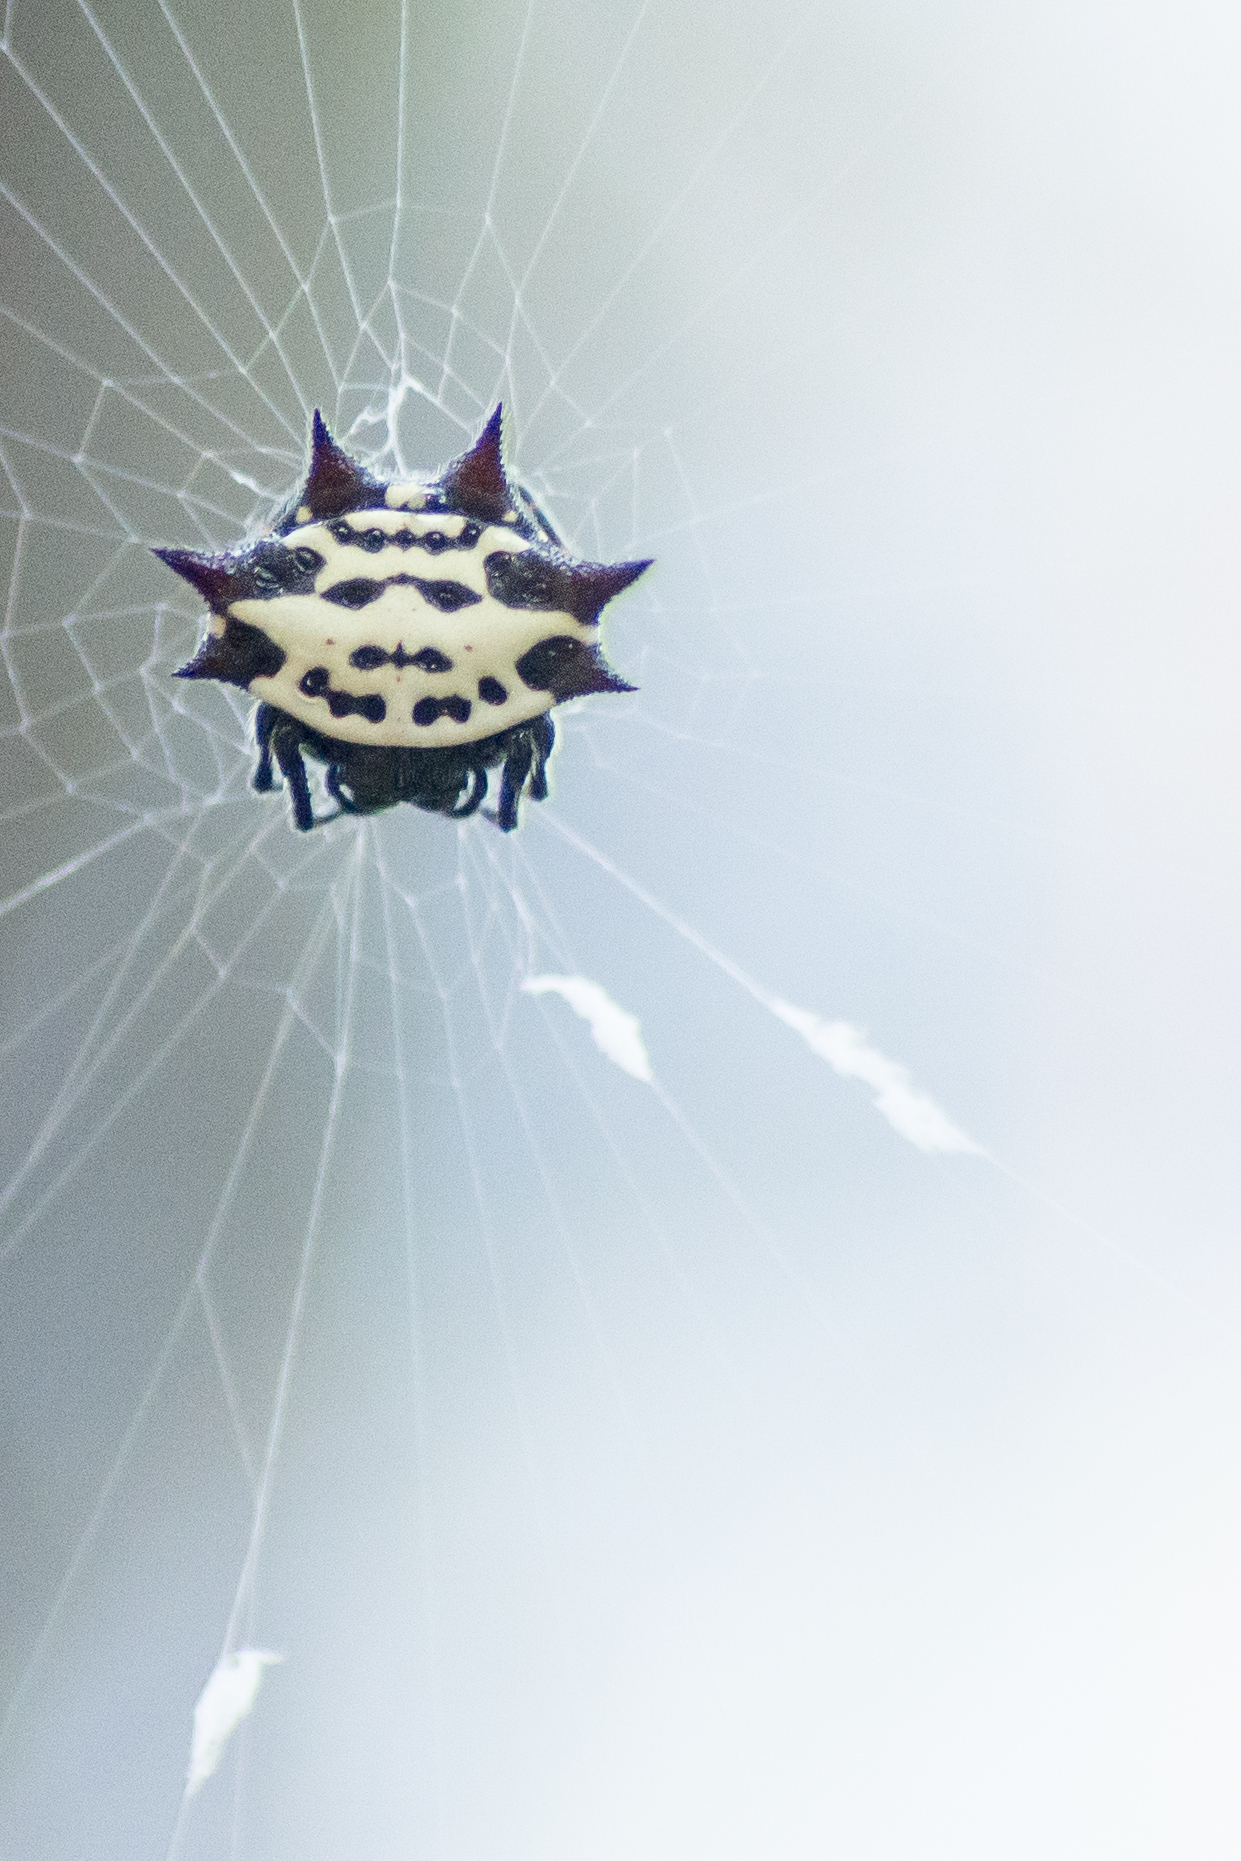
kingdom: Animalia
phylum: Arthropoda
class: Arachnida
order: Araneae
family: Araneidae
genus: Gasteracantha
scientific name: Gasteracantha cancriformis
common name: Orb weavers
